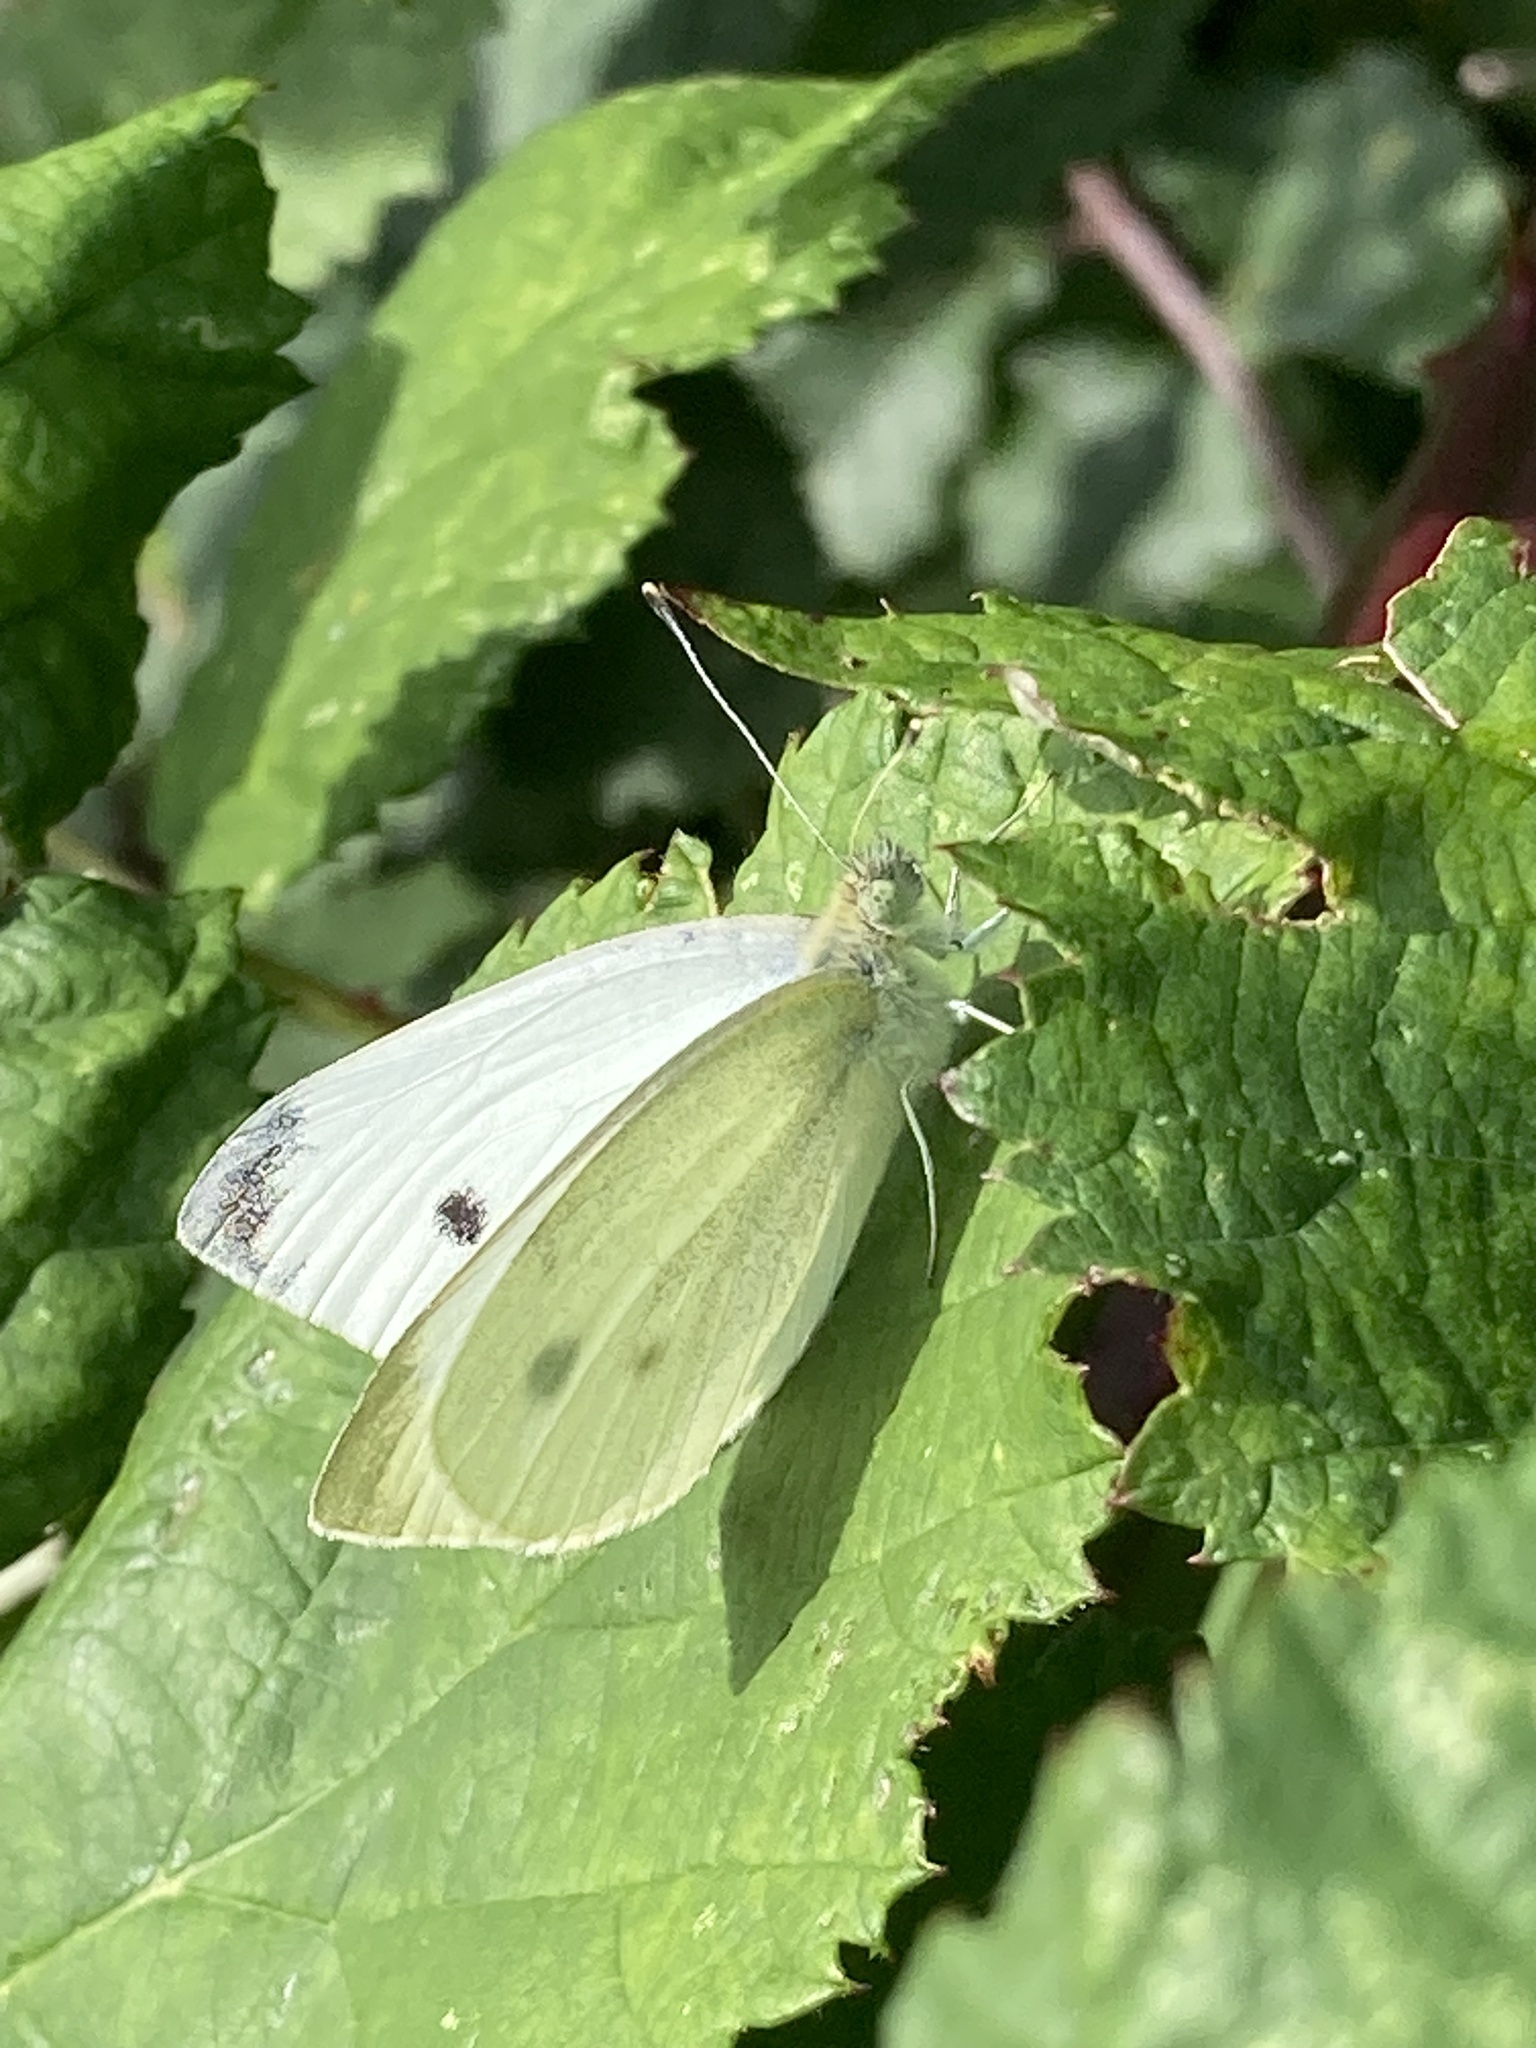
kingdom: Animalia
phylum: Arthropoda
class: Insecta
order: Lepidoptera
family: Pieridae
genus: Pieris
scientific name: Pieris rapae
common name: Small white
